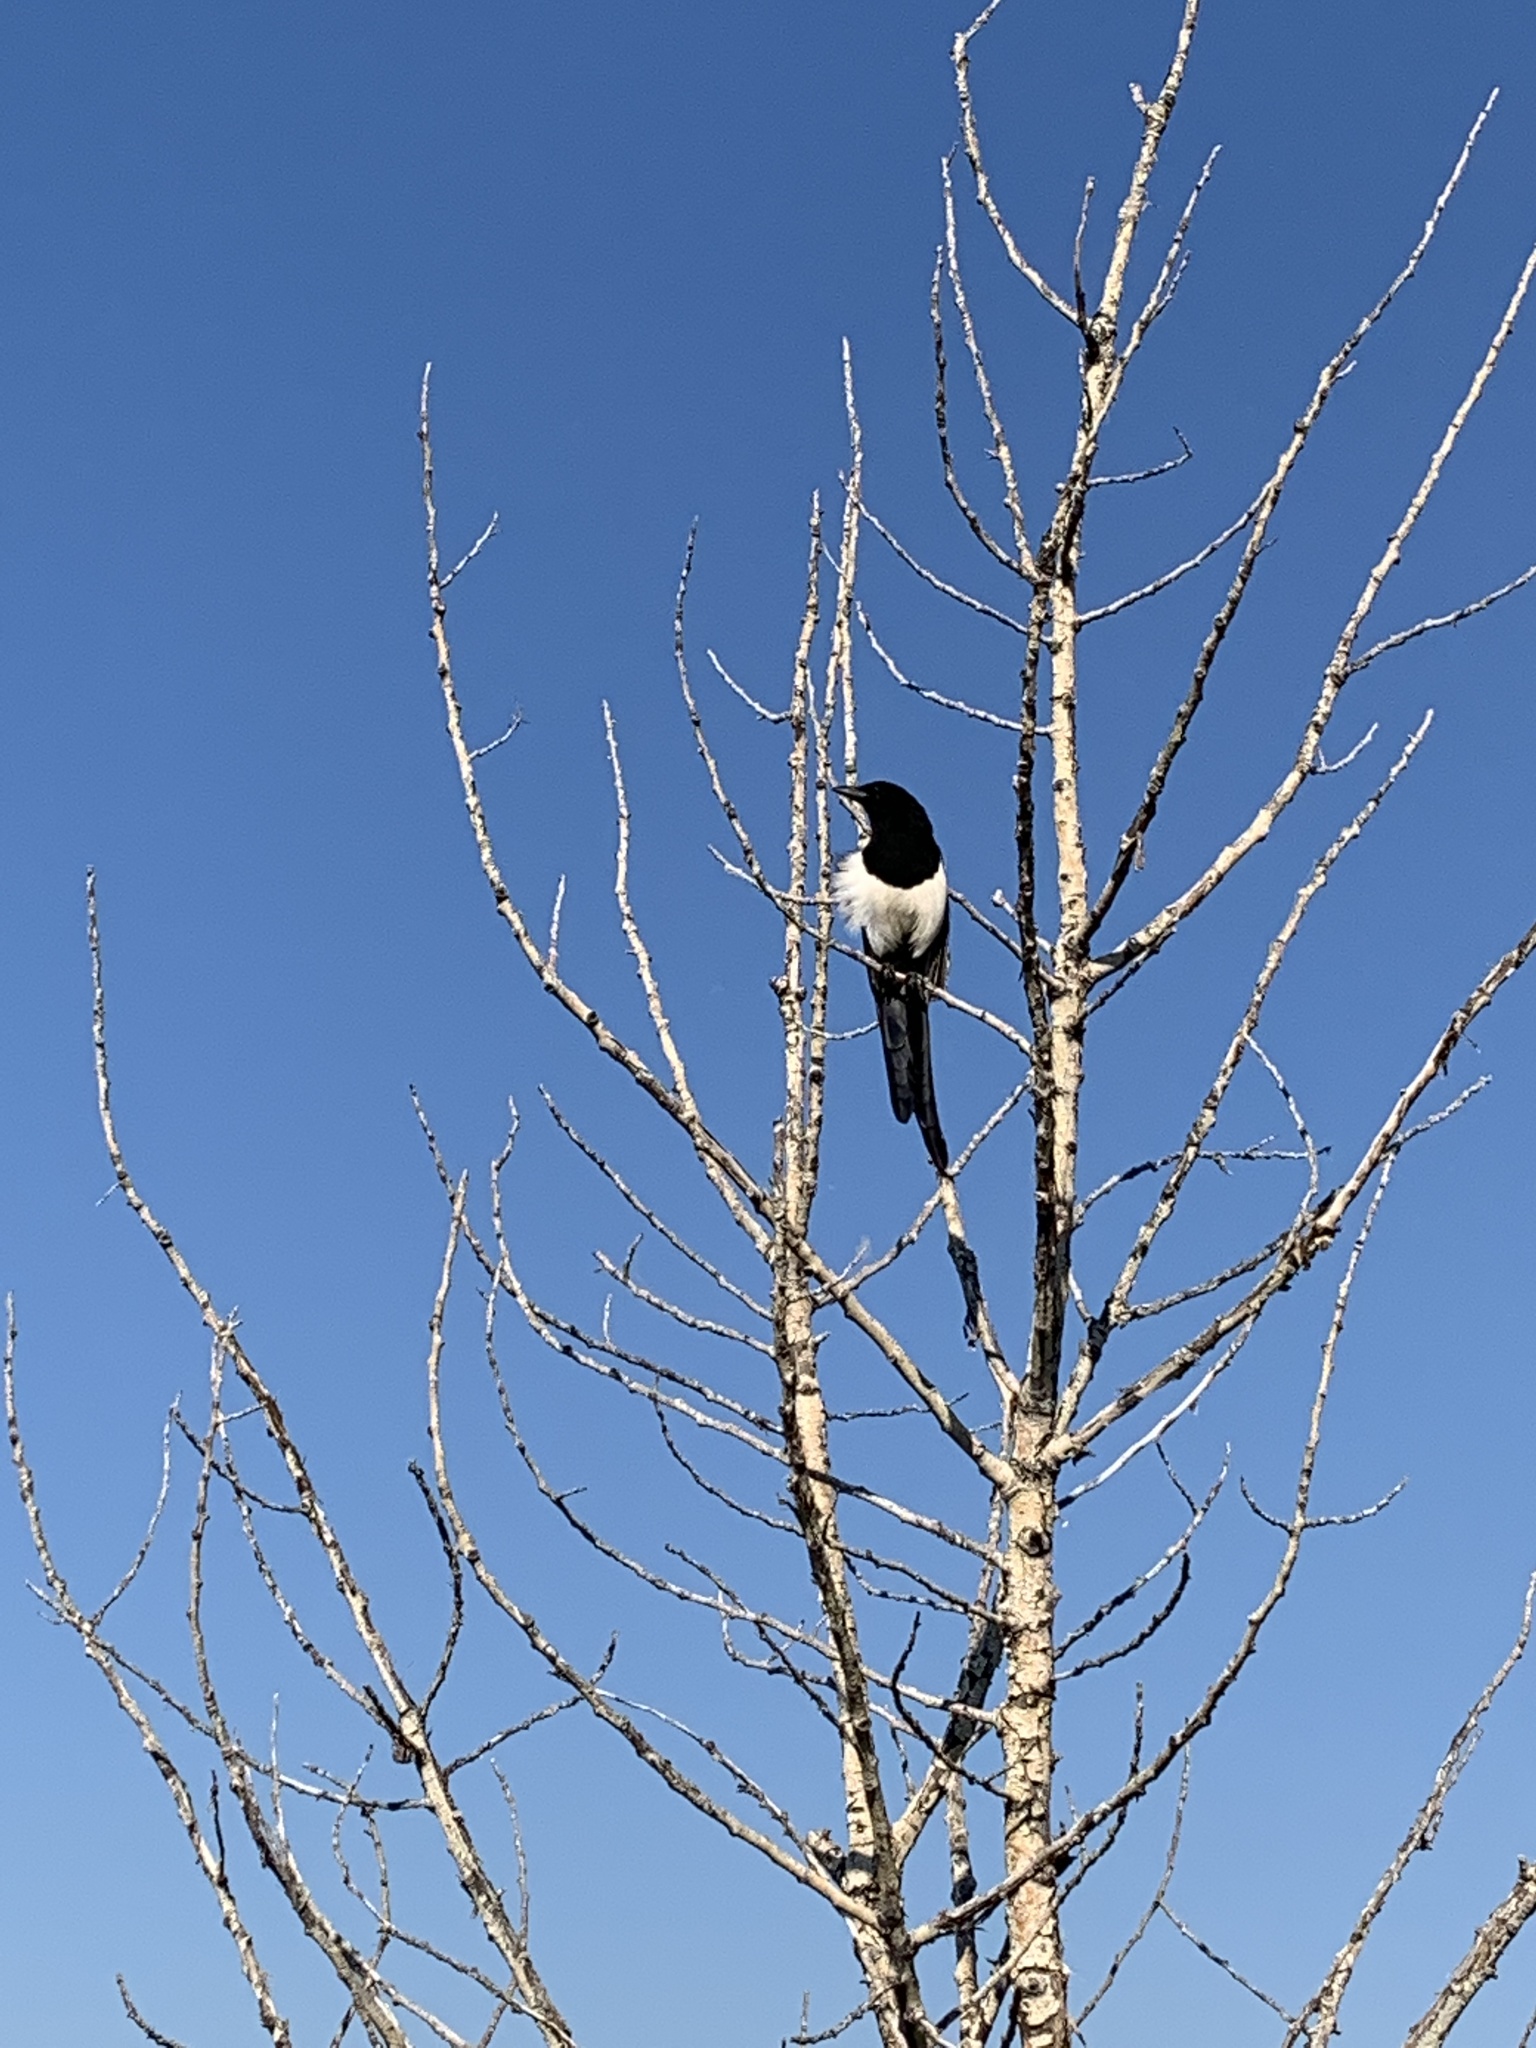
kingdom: Animalia
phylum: Chordata
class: Aves
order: Passeriformes
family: Corvidae
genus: Pica
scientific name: Pica hudsonia
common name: Black-billed magpie
